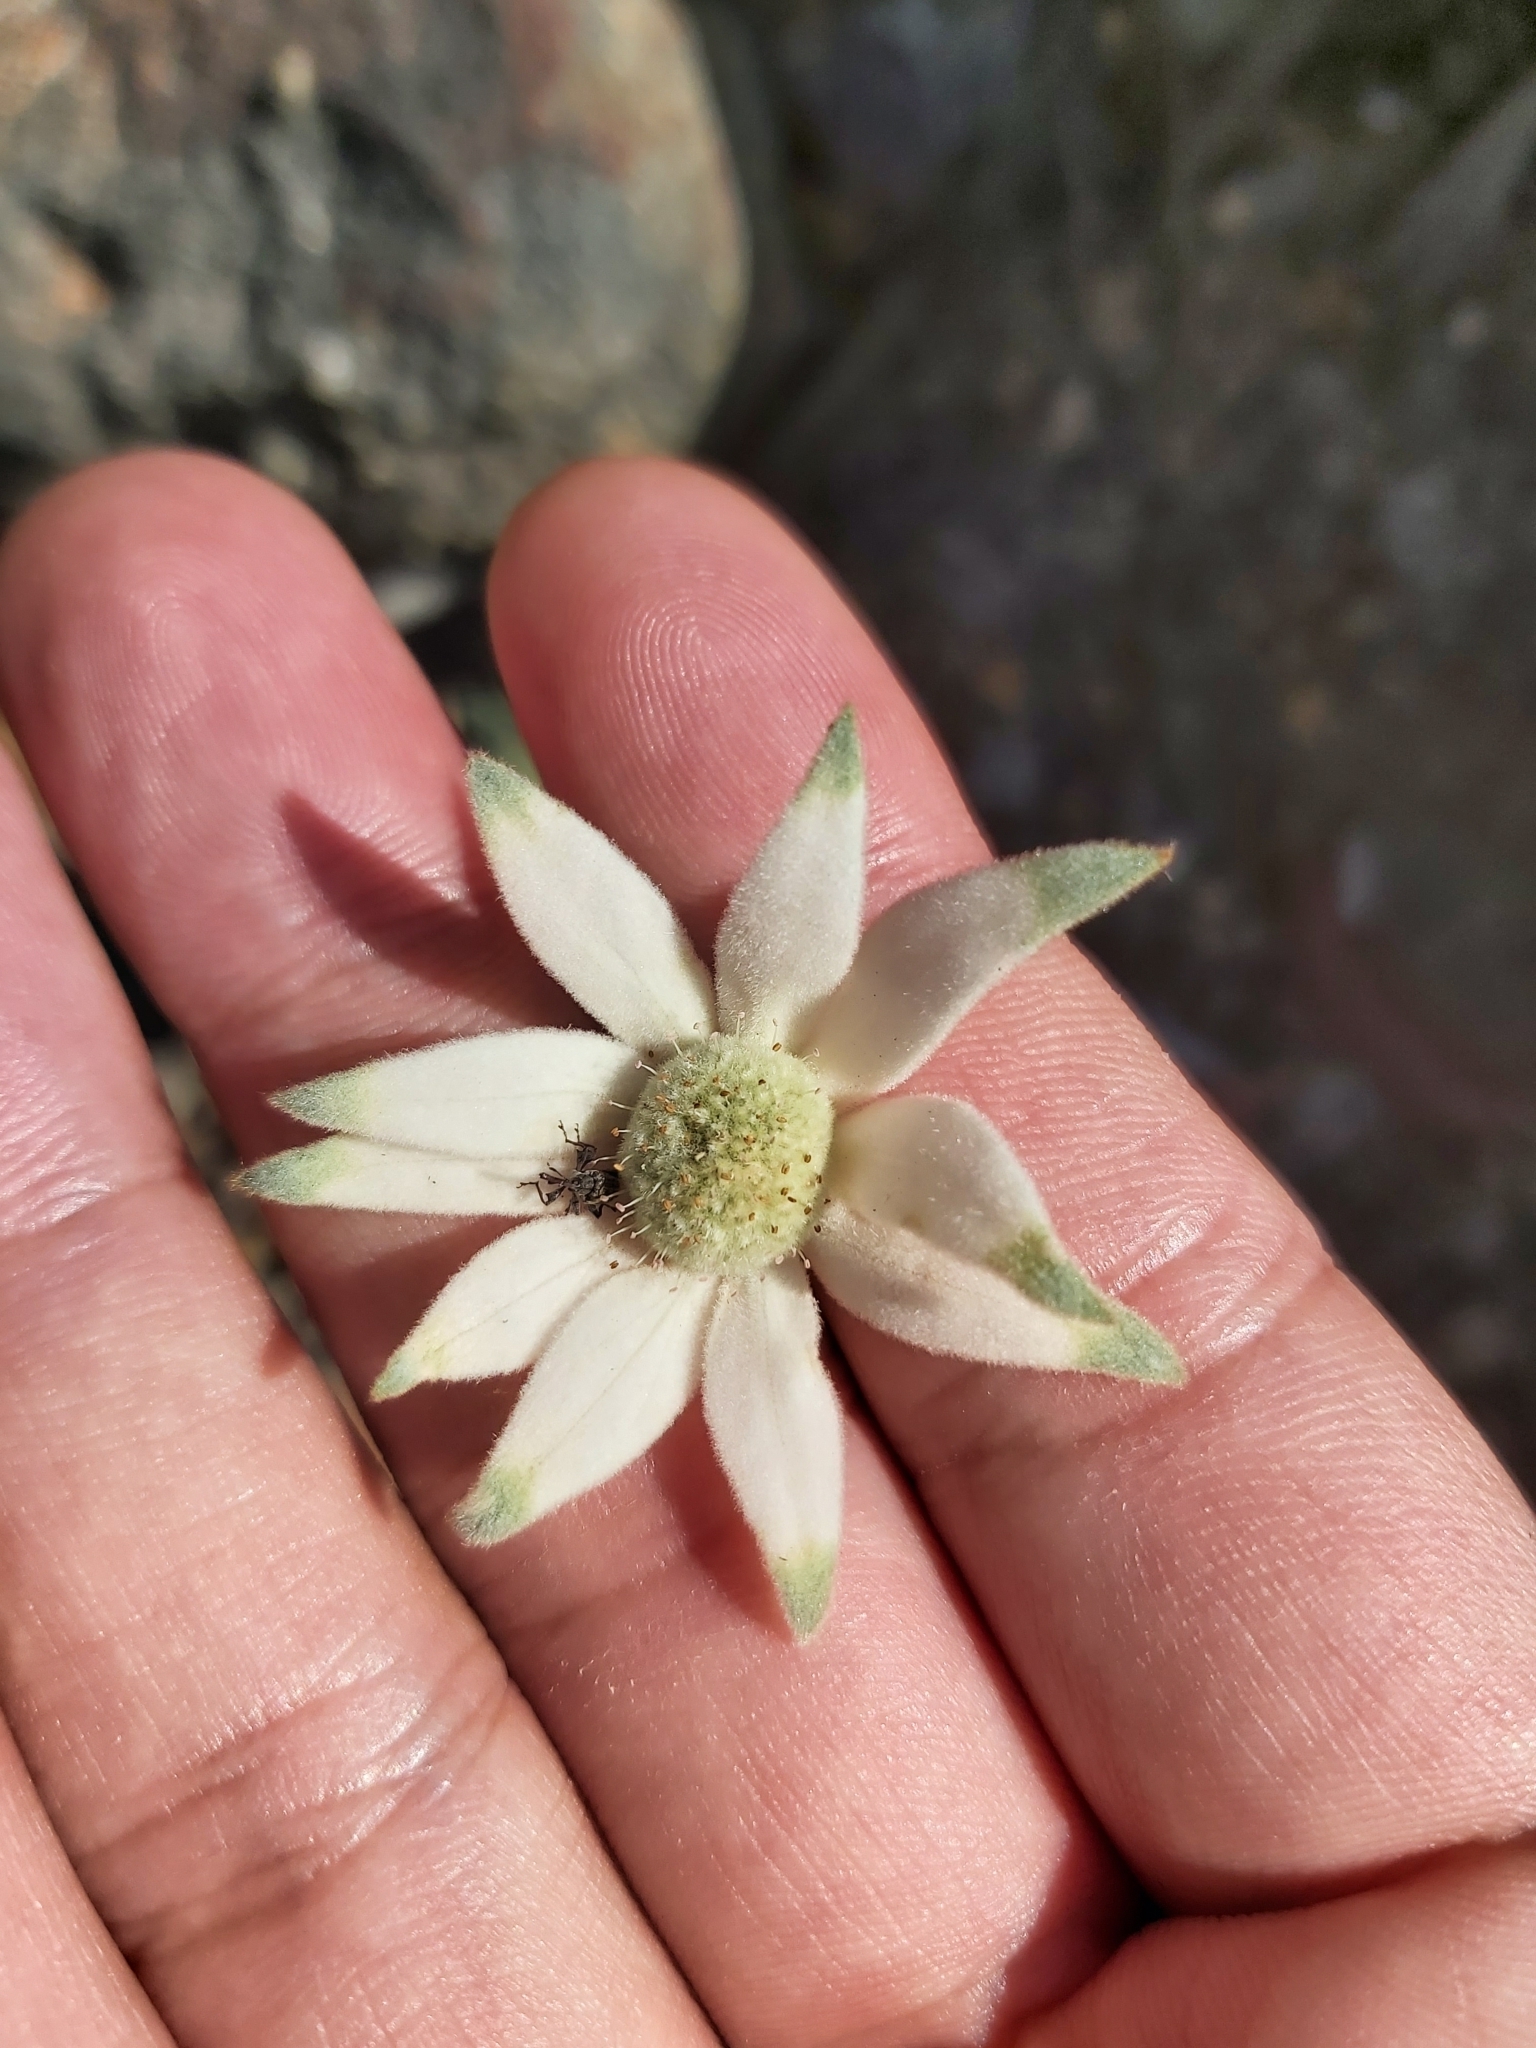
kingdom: Plantae
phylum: Tracheophyta
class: Magnoliopsida
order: Apiales
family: Apiaceae
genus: Actinotus
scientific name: Actinotus helianthi
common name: Flannel-flower
